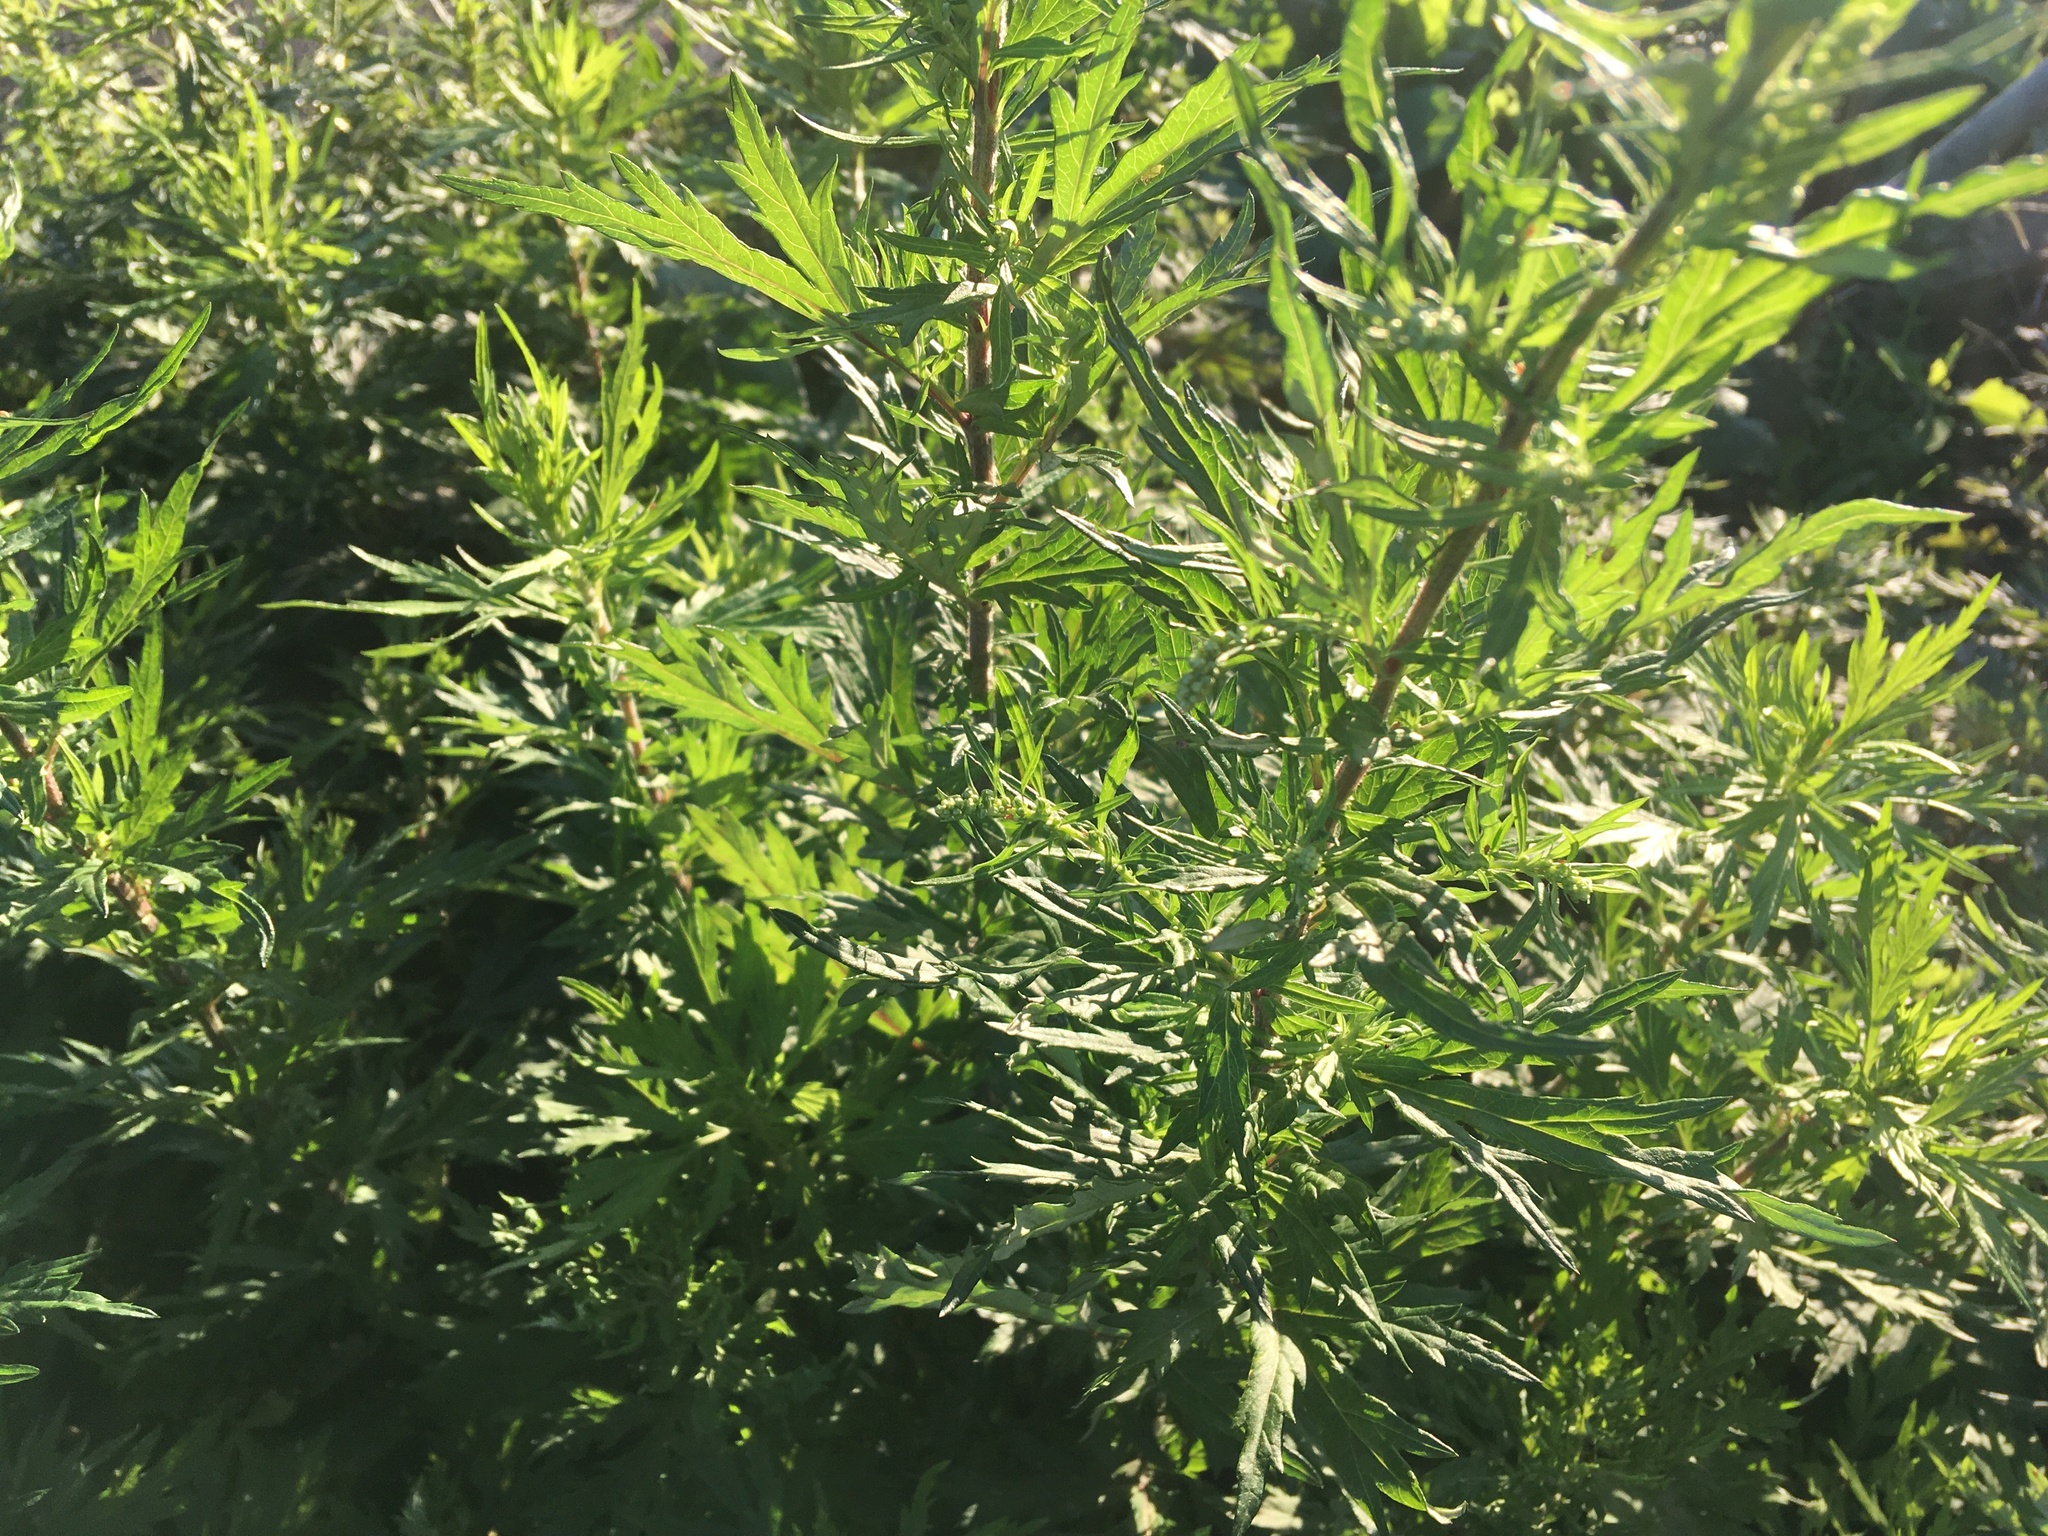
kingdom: Plantae
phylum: Tracheophyta
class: Magnoliopsida
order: Asterales
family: Asteraceae
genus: Artemisia
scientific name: Artemisia vulgaris
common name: Mugwort
